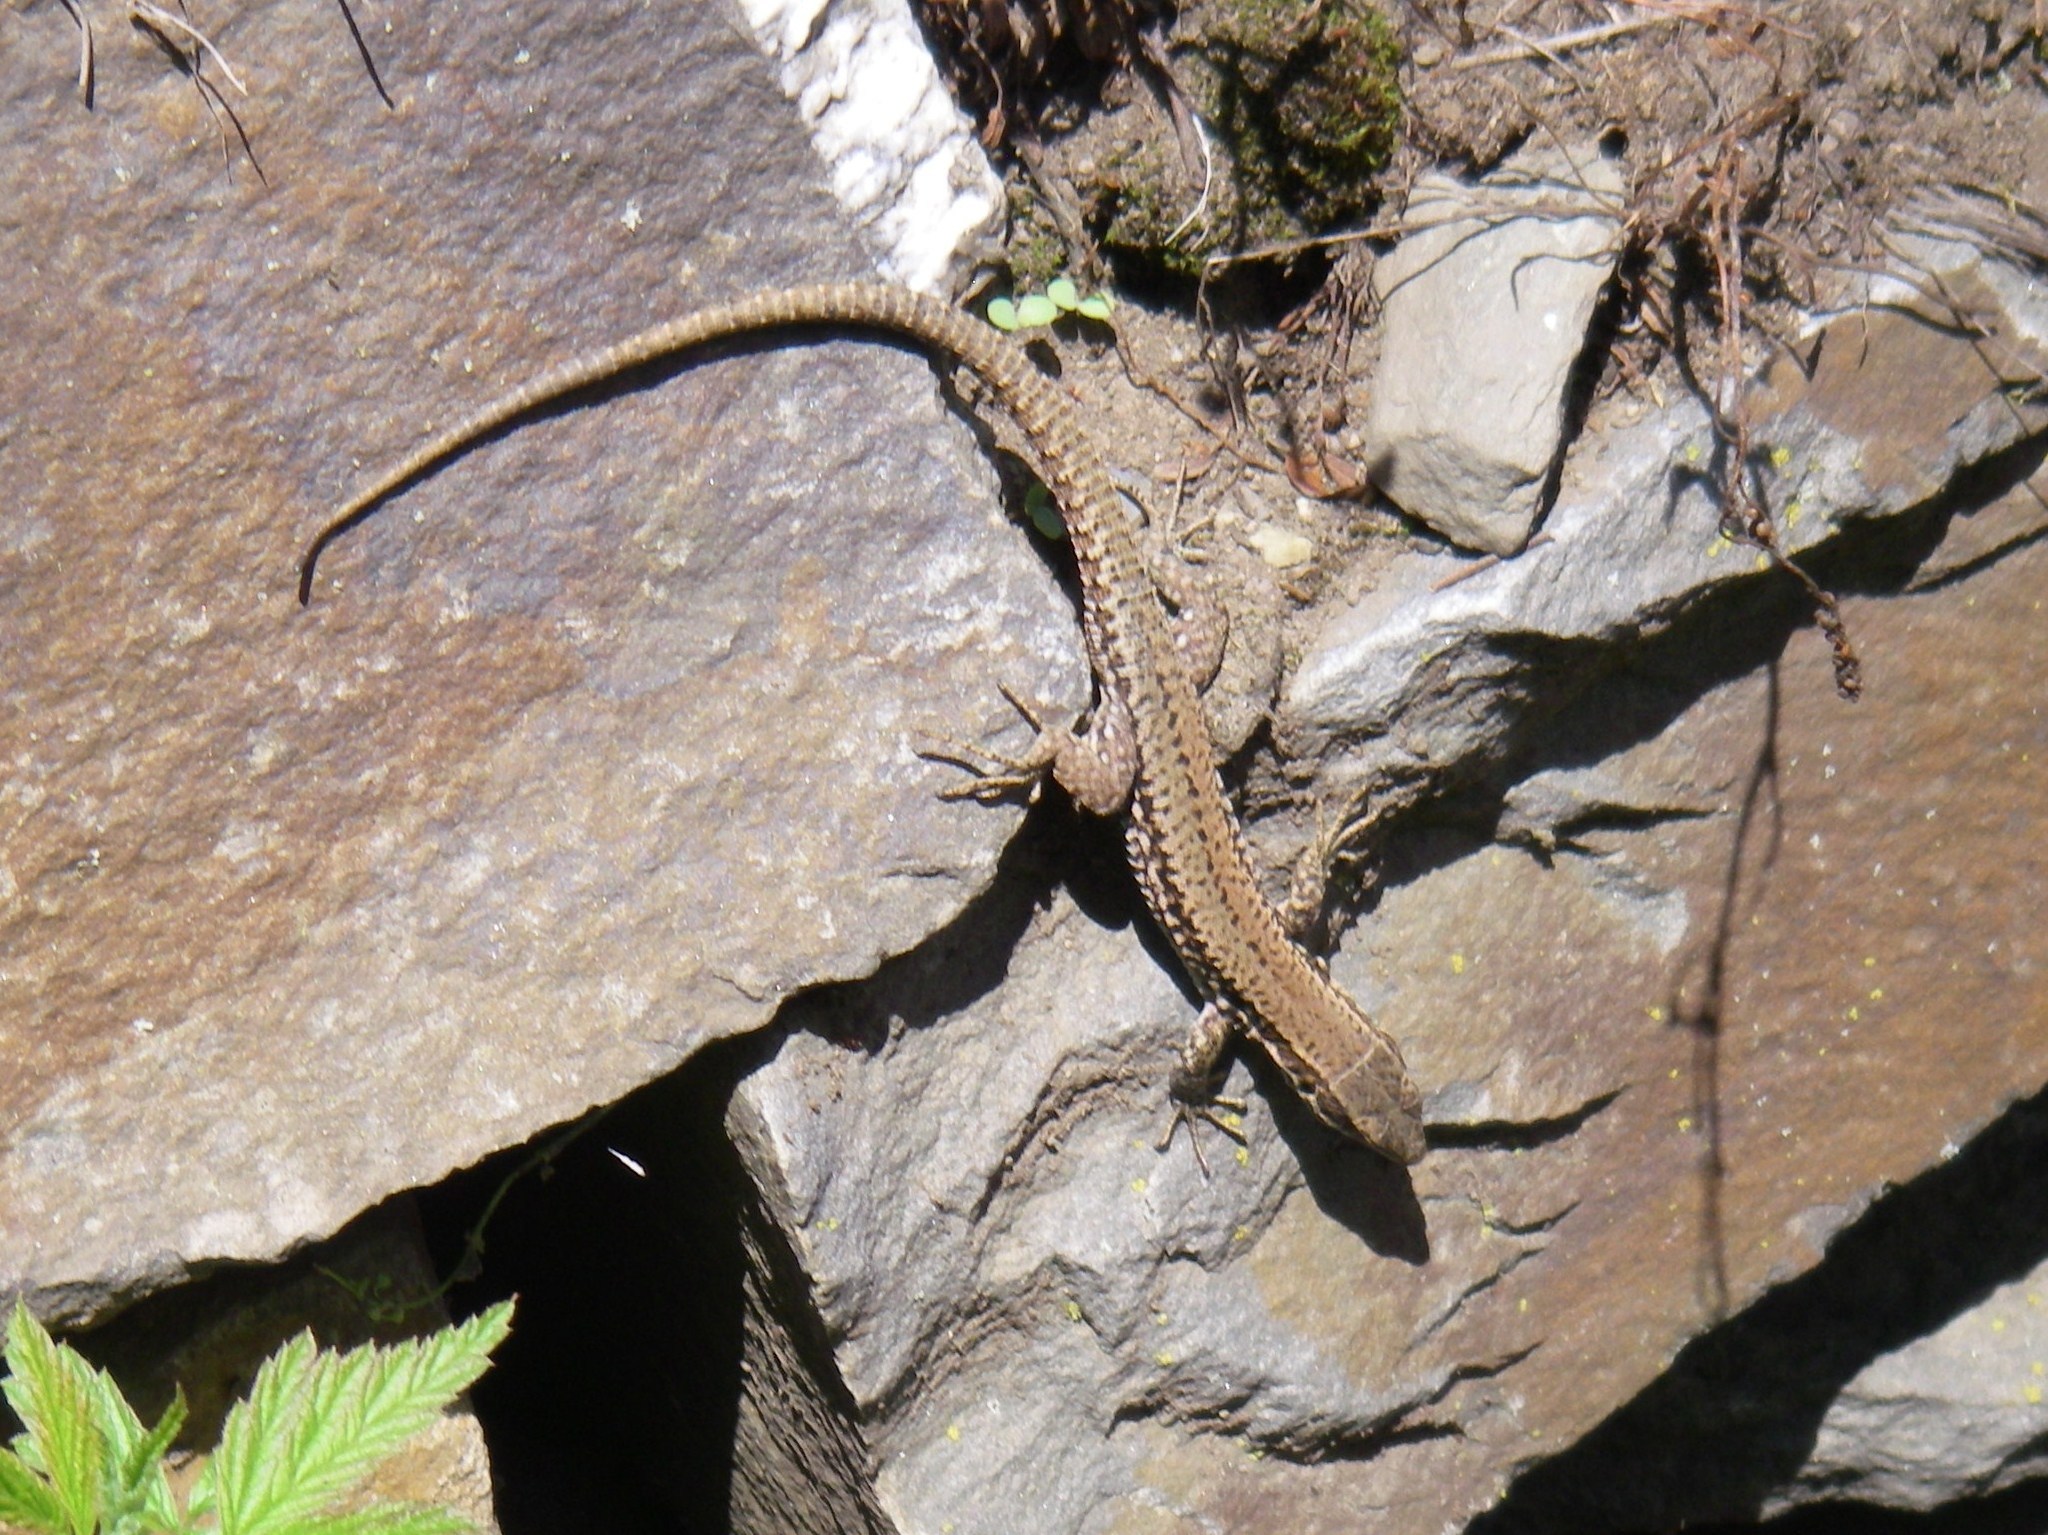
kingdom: Animalia
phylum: Chordata
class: Squamata
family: Lacertidae
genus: Podarcis
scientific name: Podarcis muralis
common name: Common wall lizard
